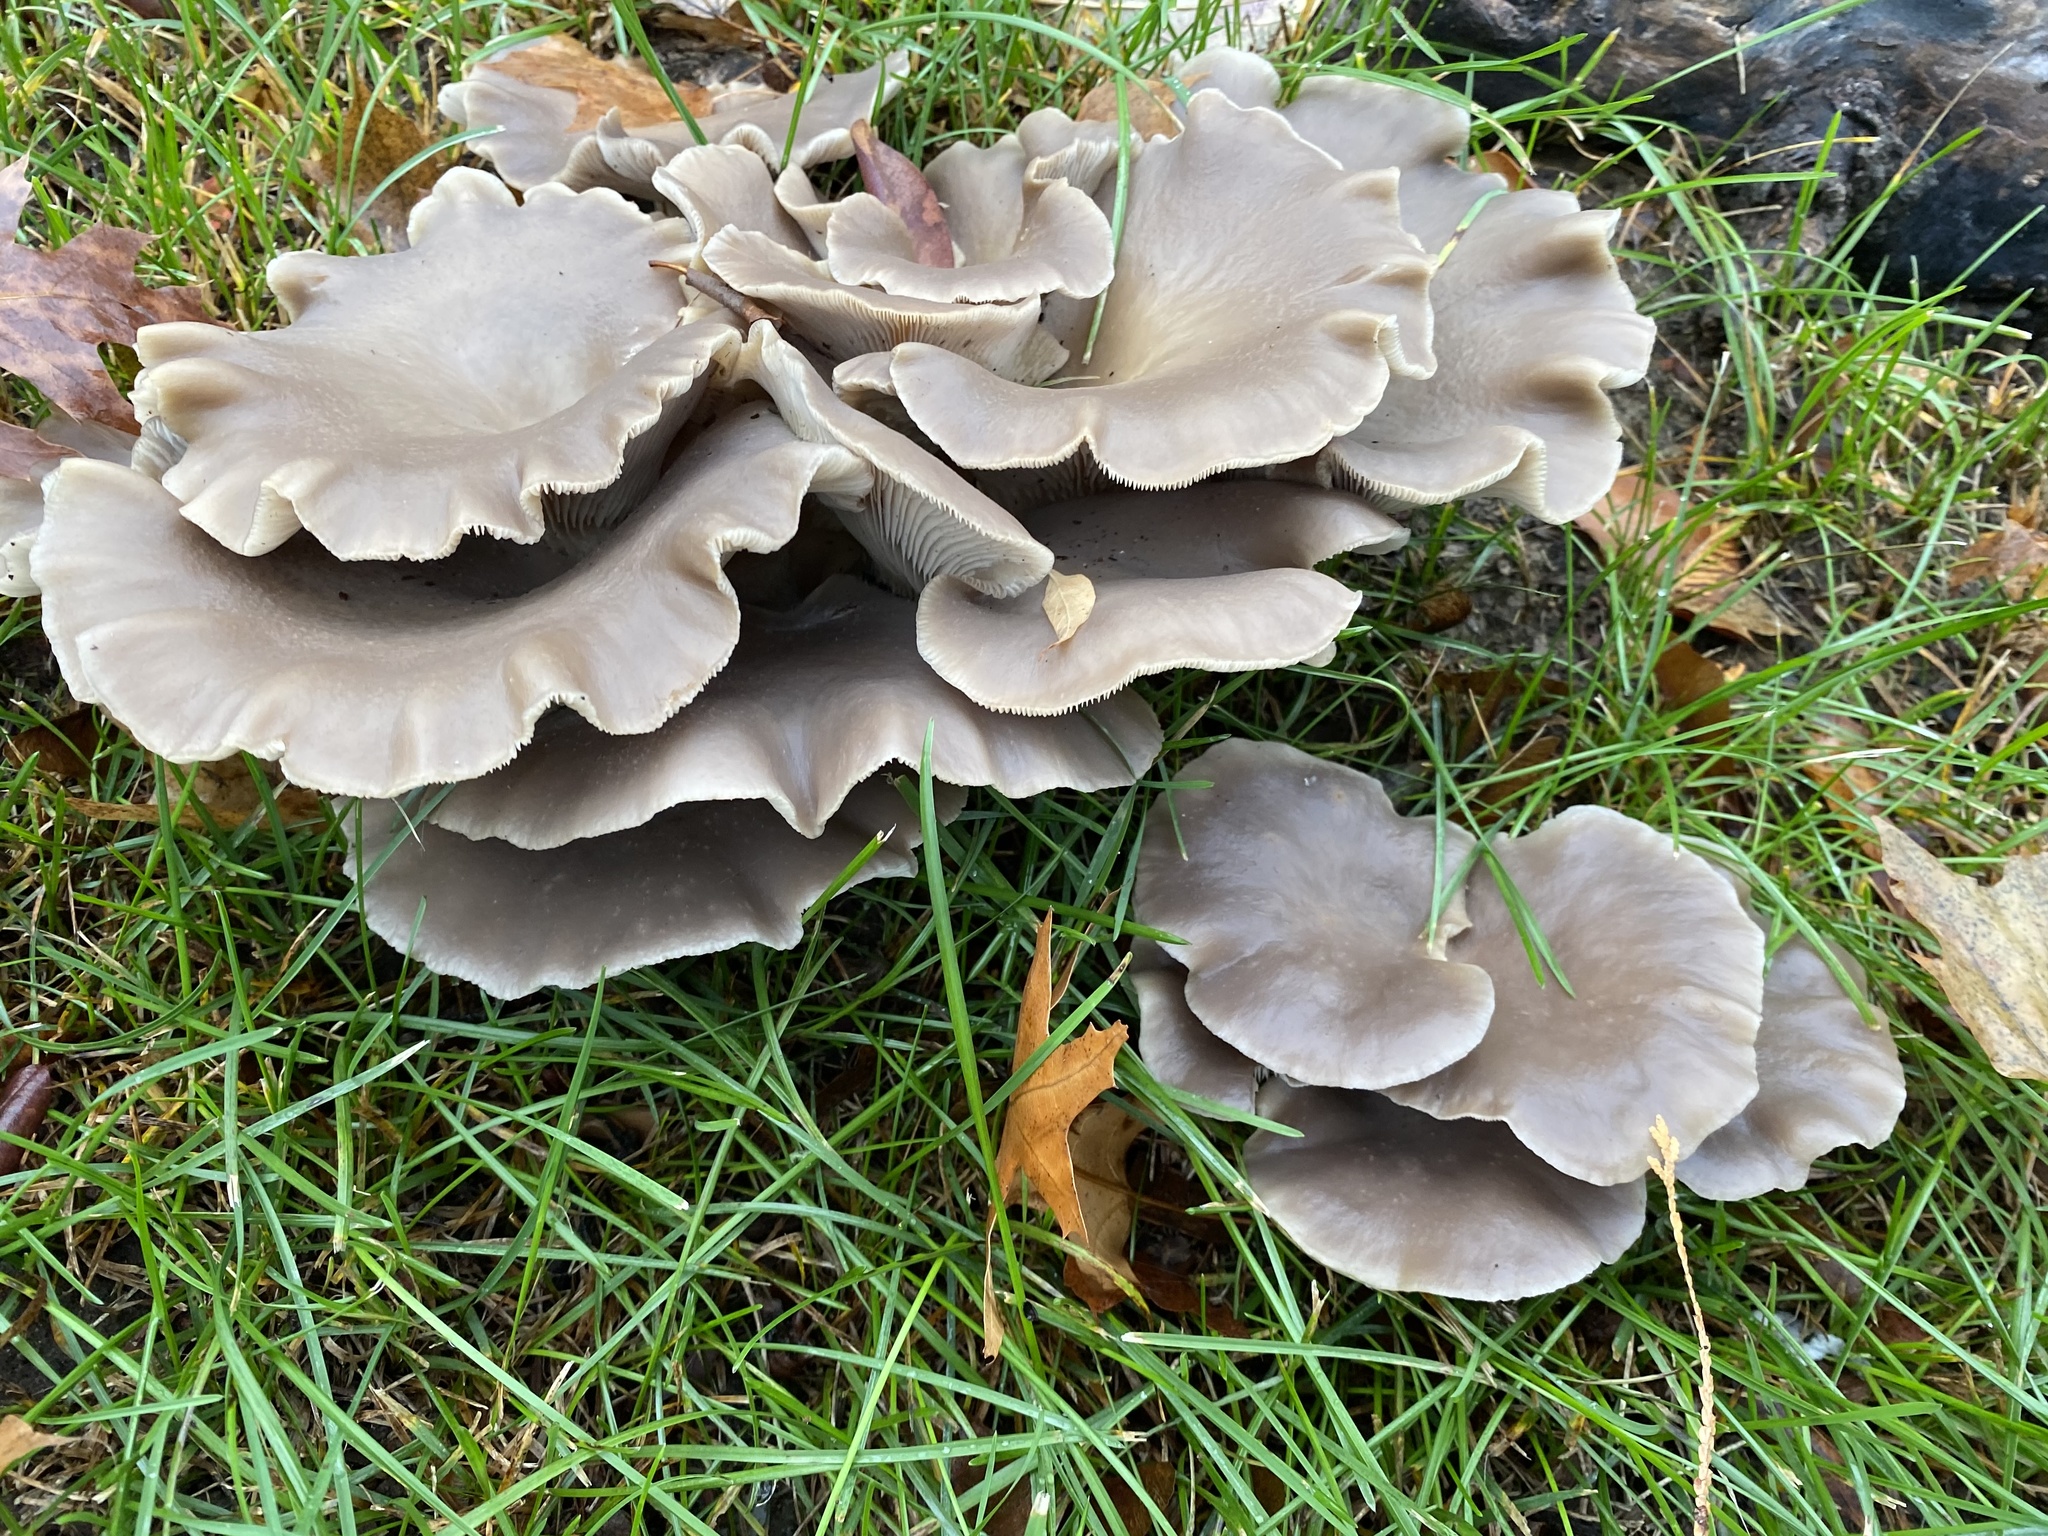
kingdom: Fungi
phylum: Basidiomycota
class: Agaricomycetes
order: Agaricales
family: Pleurotaceae
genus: Pleurotus
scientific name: Pleurotus ostreatus
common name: Oyster mushroom
